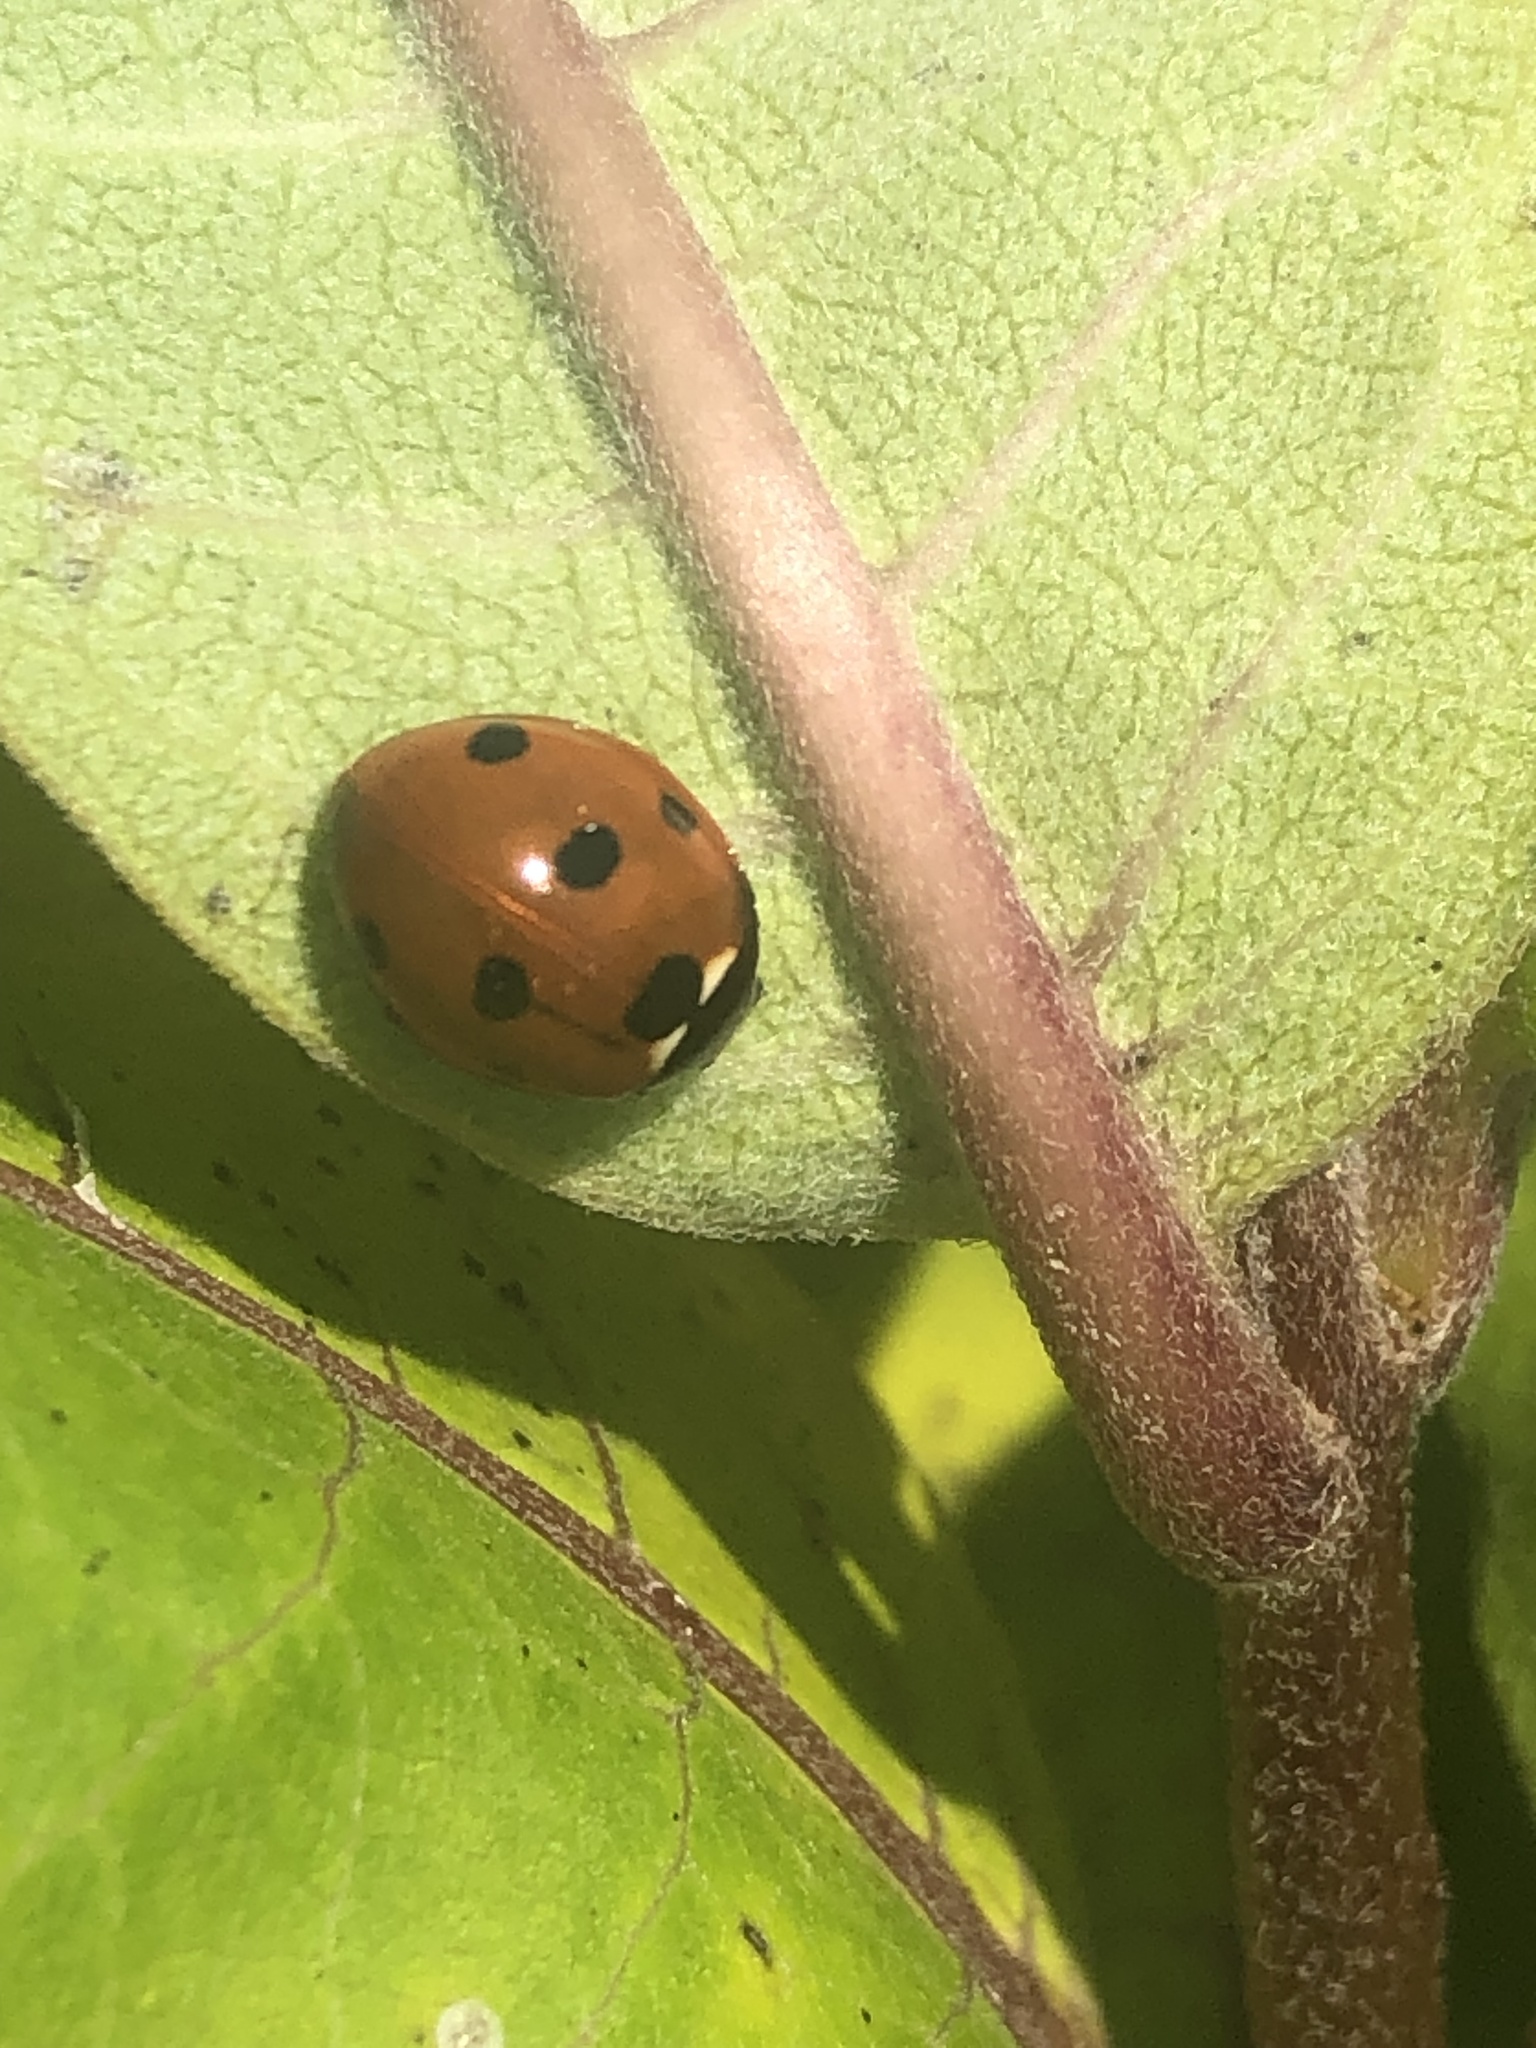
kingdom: Animalia
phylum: Arthropoda
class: Insecta
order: Coleoptera
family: Coccinellidae
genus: Coccinella
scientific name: Coccinella septempunctata
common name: Sevenspotted lady beetle
